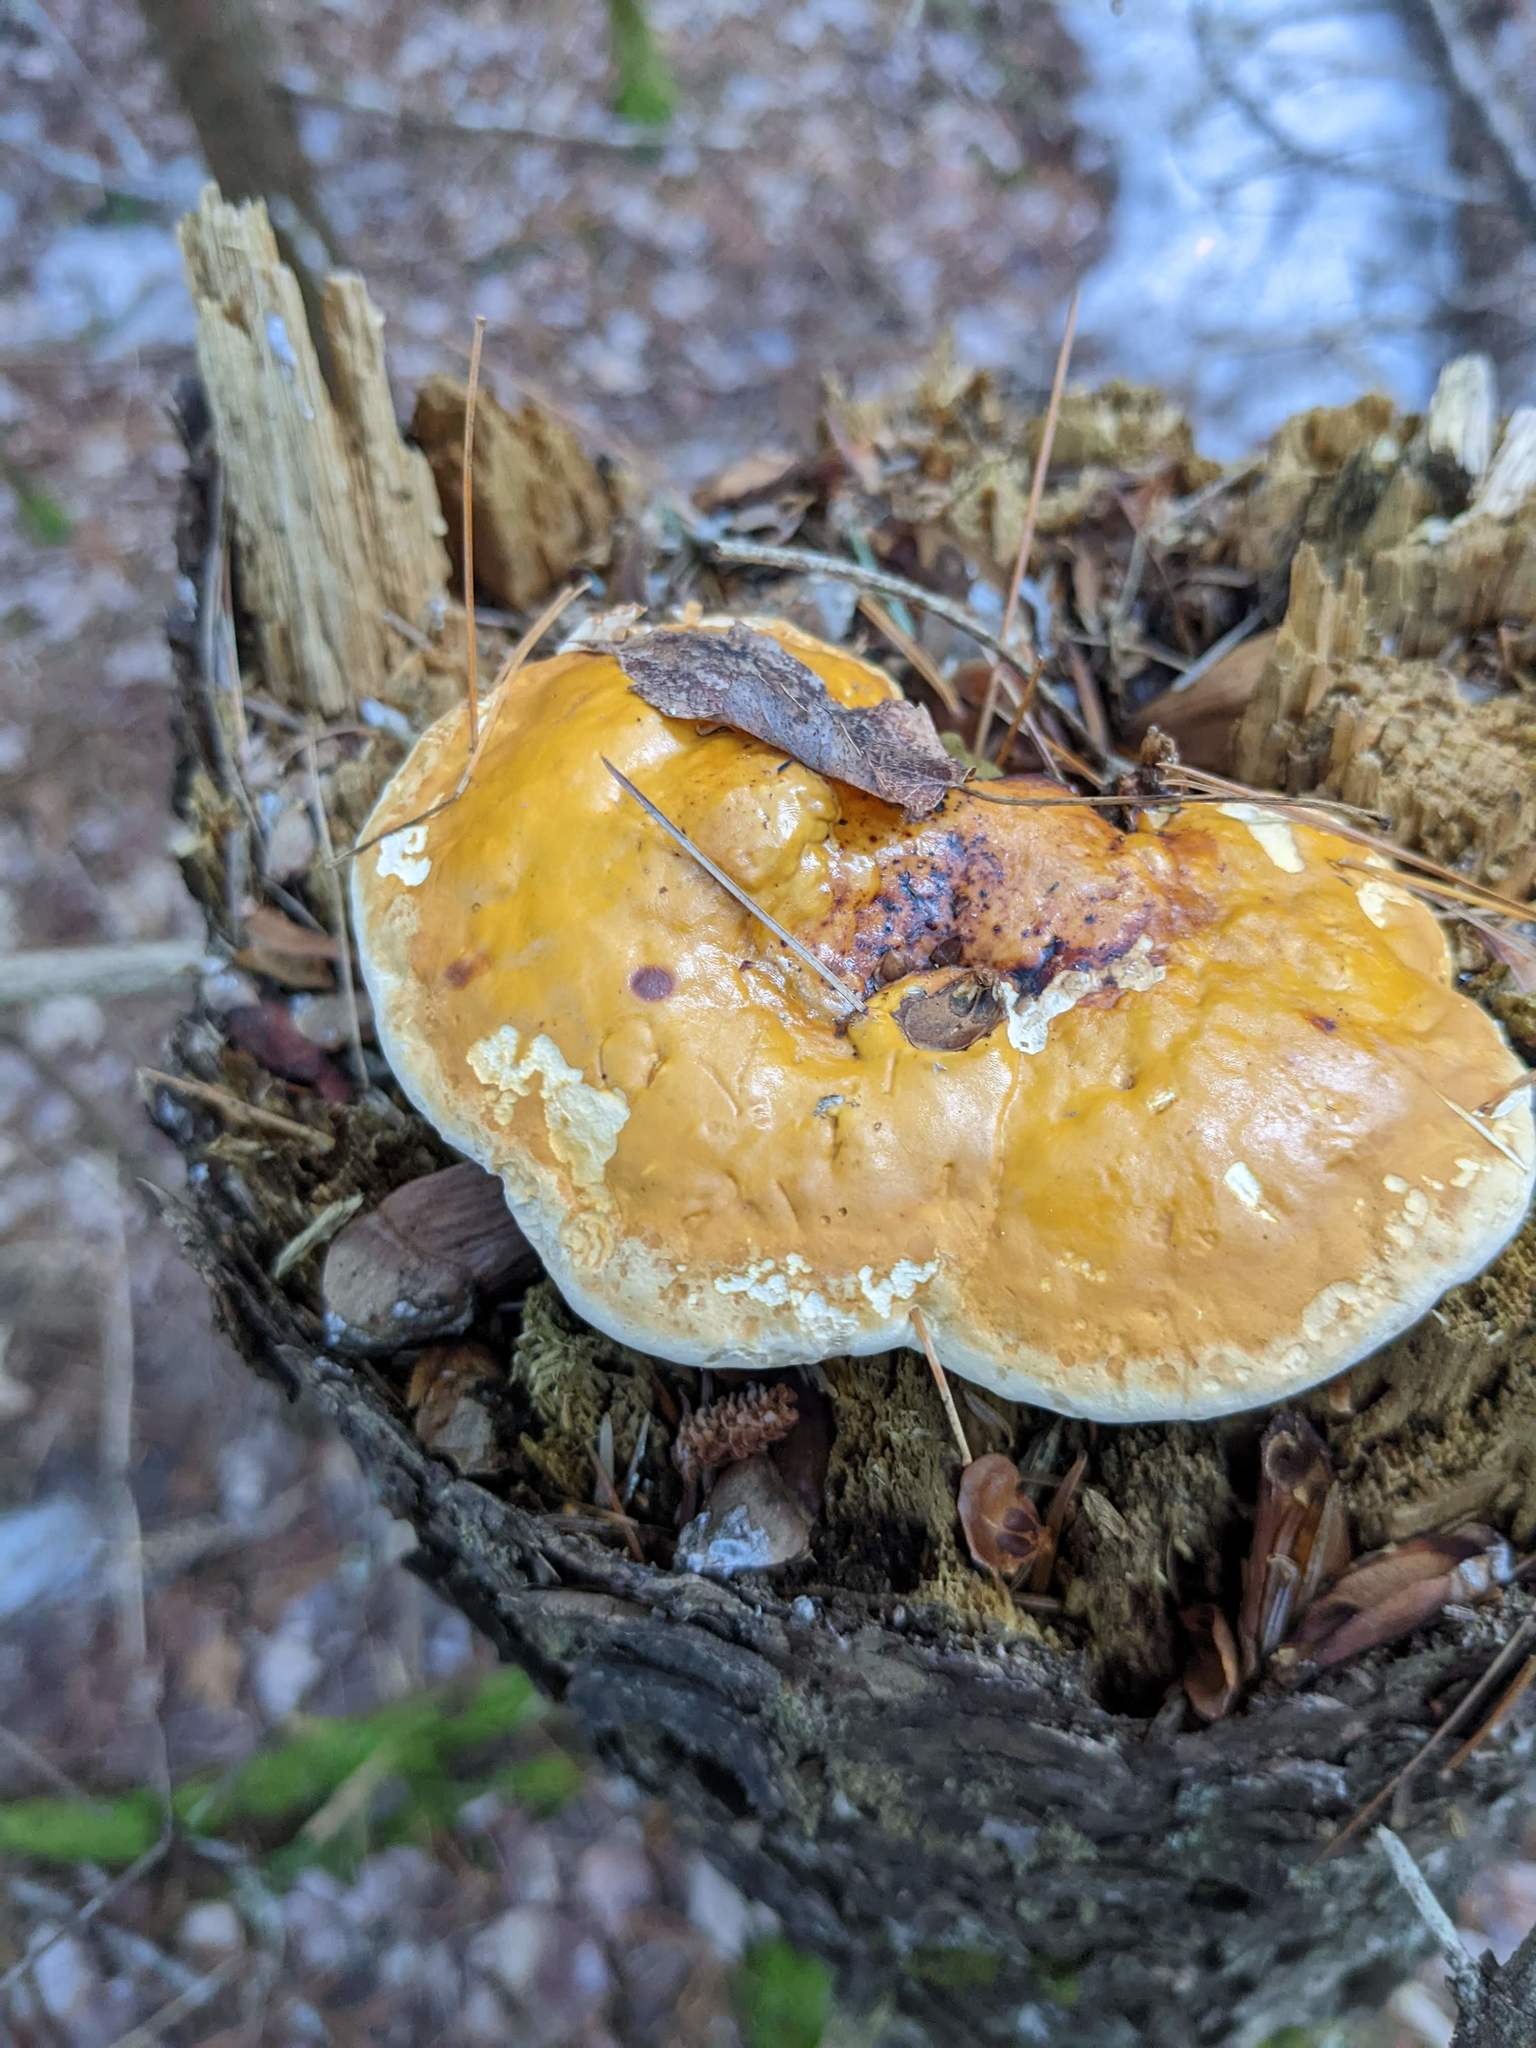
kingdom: Fungi
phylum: Basidiomycota
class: Agaricomycetes
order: Polyporales
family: Fomitopsidaceae
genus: Fomitopsis
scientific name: Fomitopsis mounceae
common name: Northern red belt
